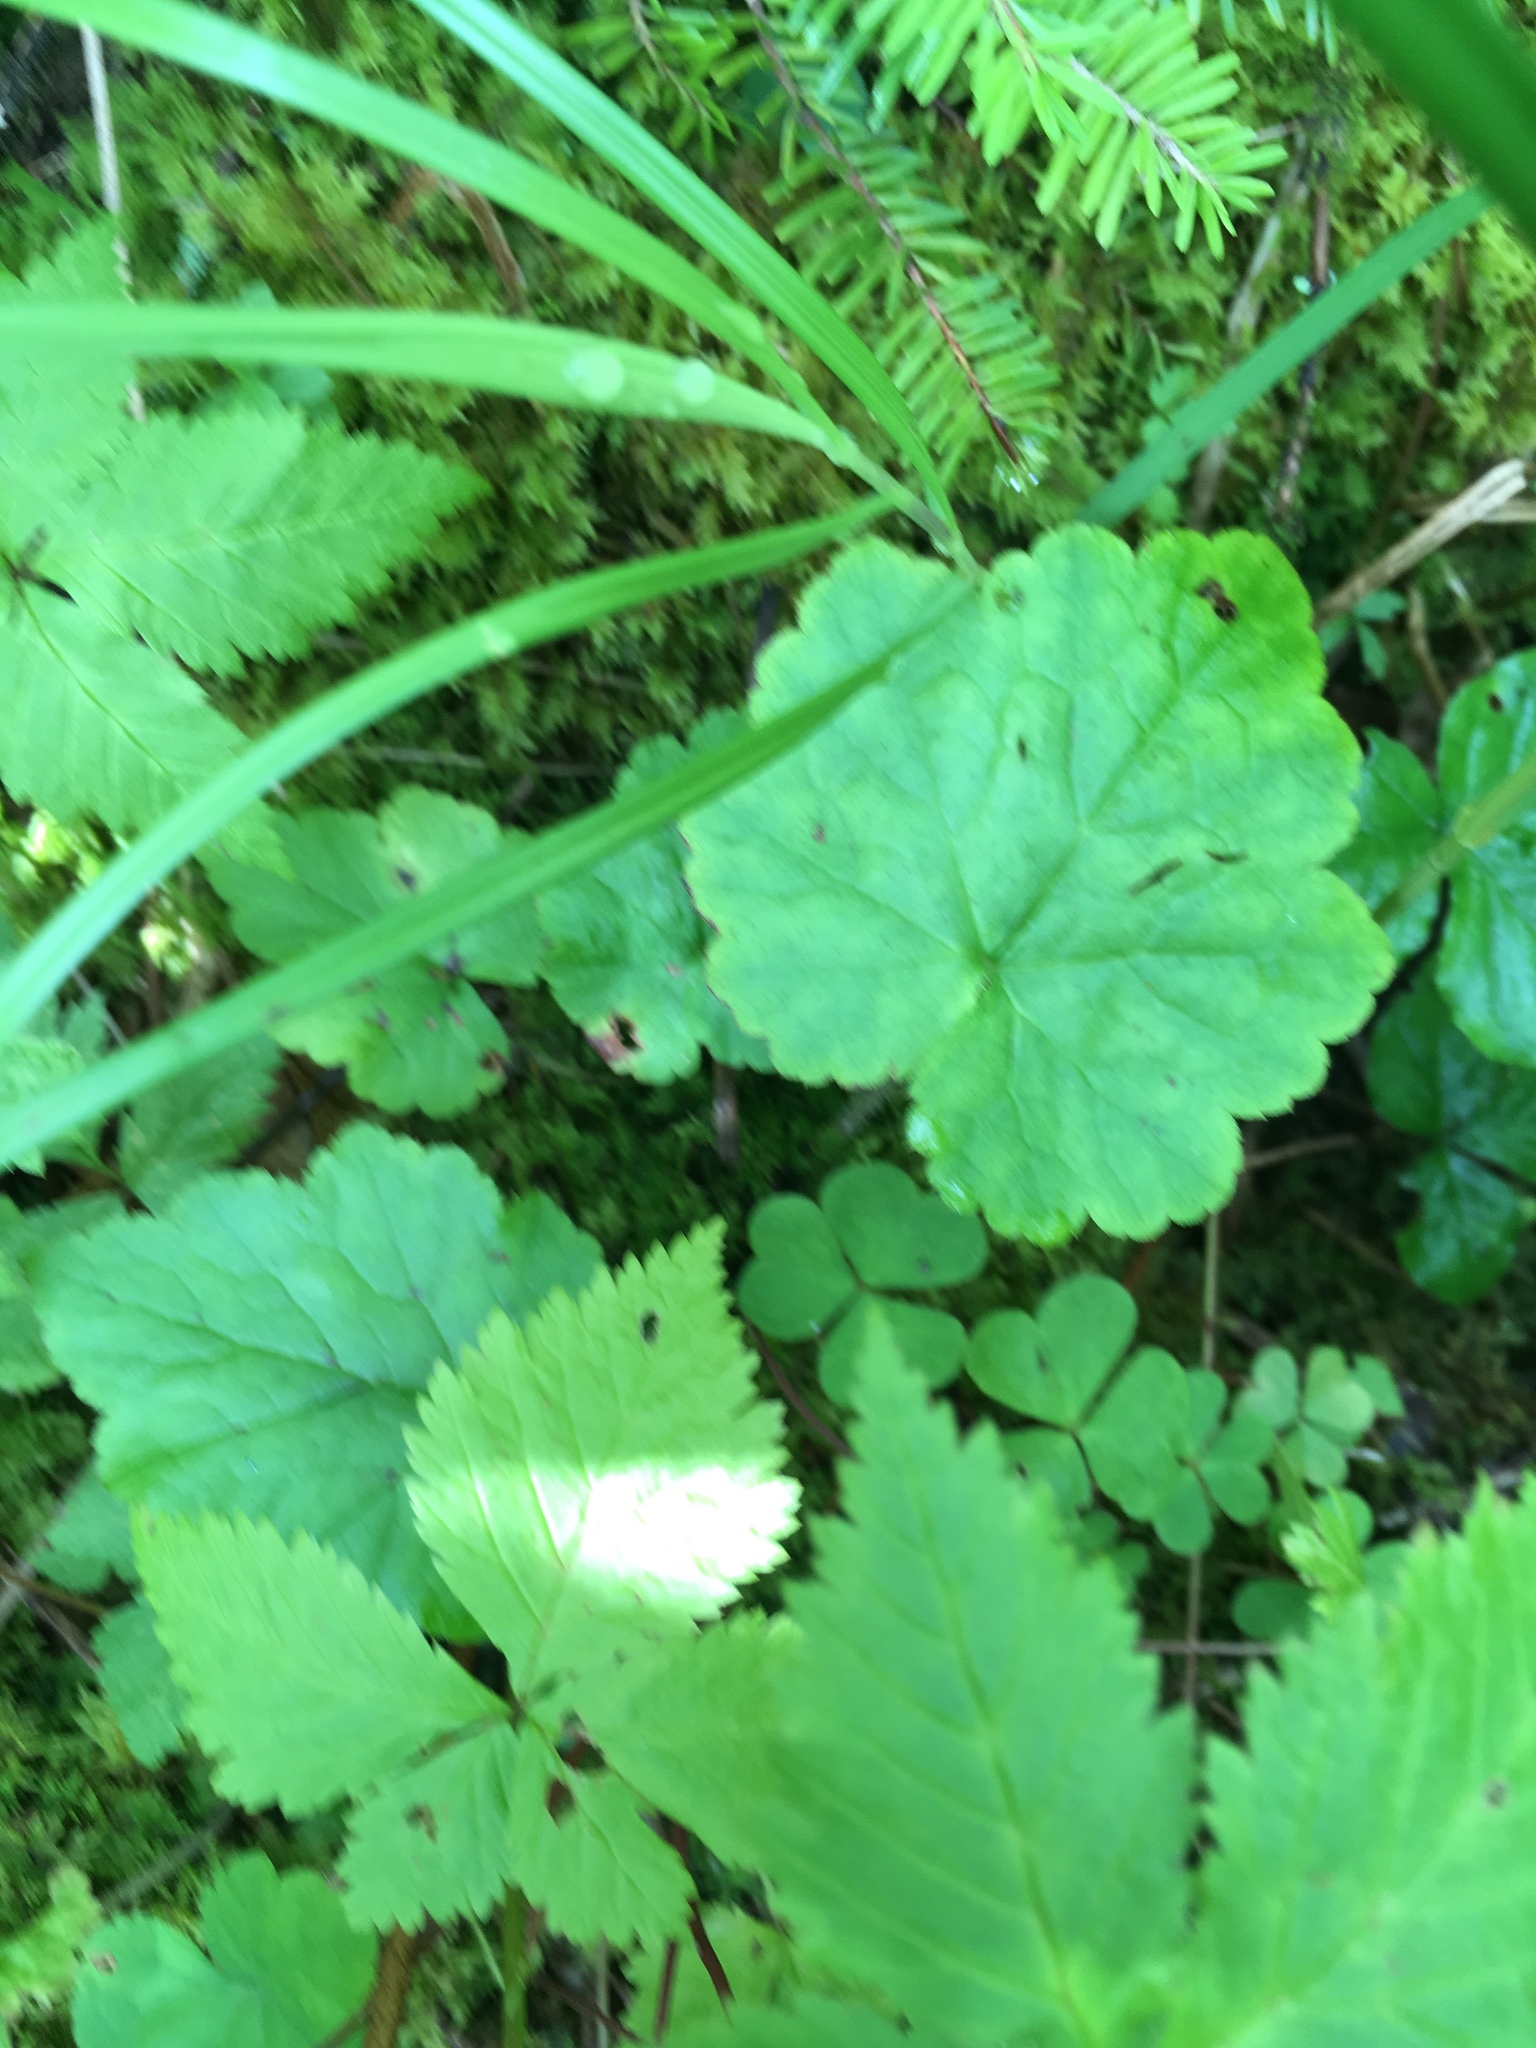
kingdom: Plantae
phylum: Tracheophyta
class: Magnoliopsida
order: Oxalidales
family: Oxalidaceae
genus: Oxalis
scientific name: Oxalis montana
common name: American wood-sorrel
